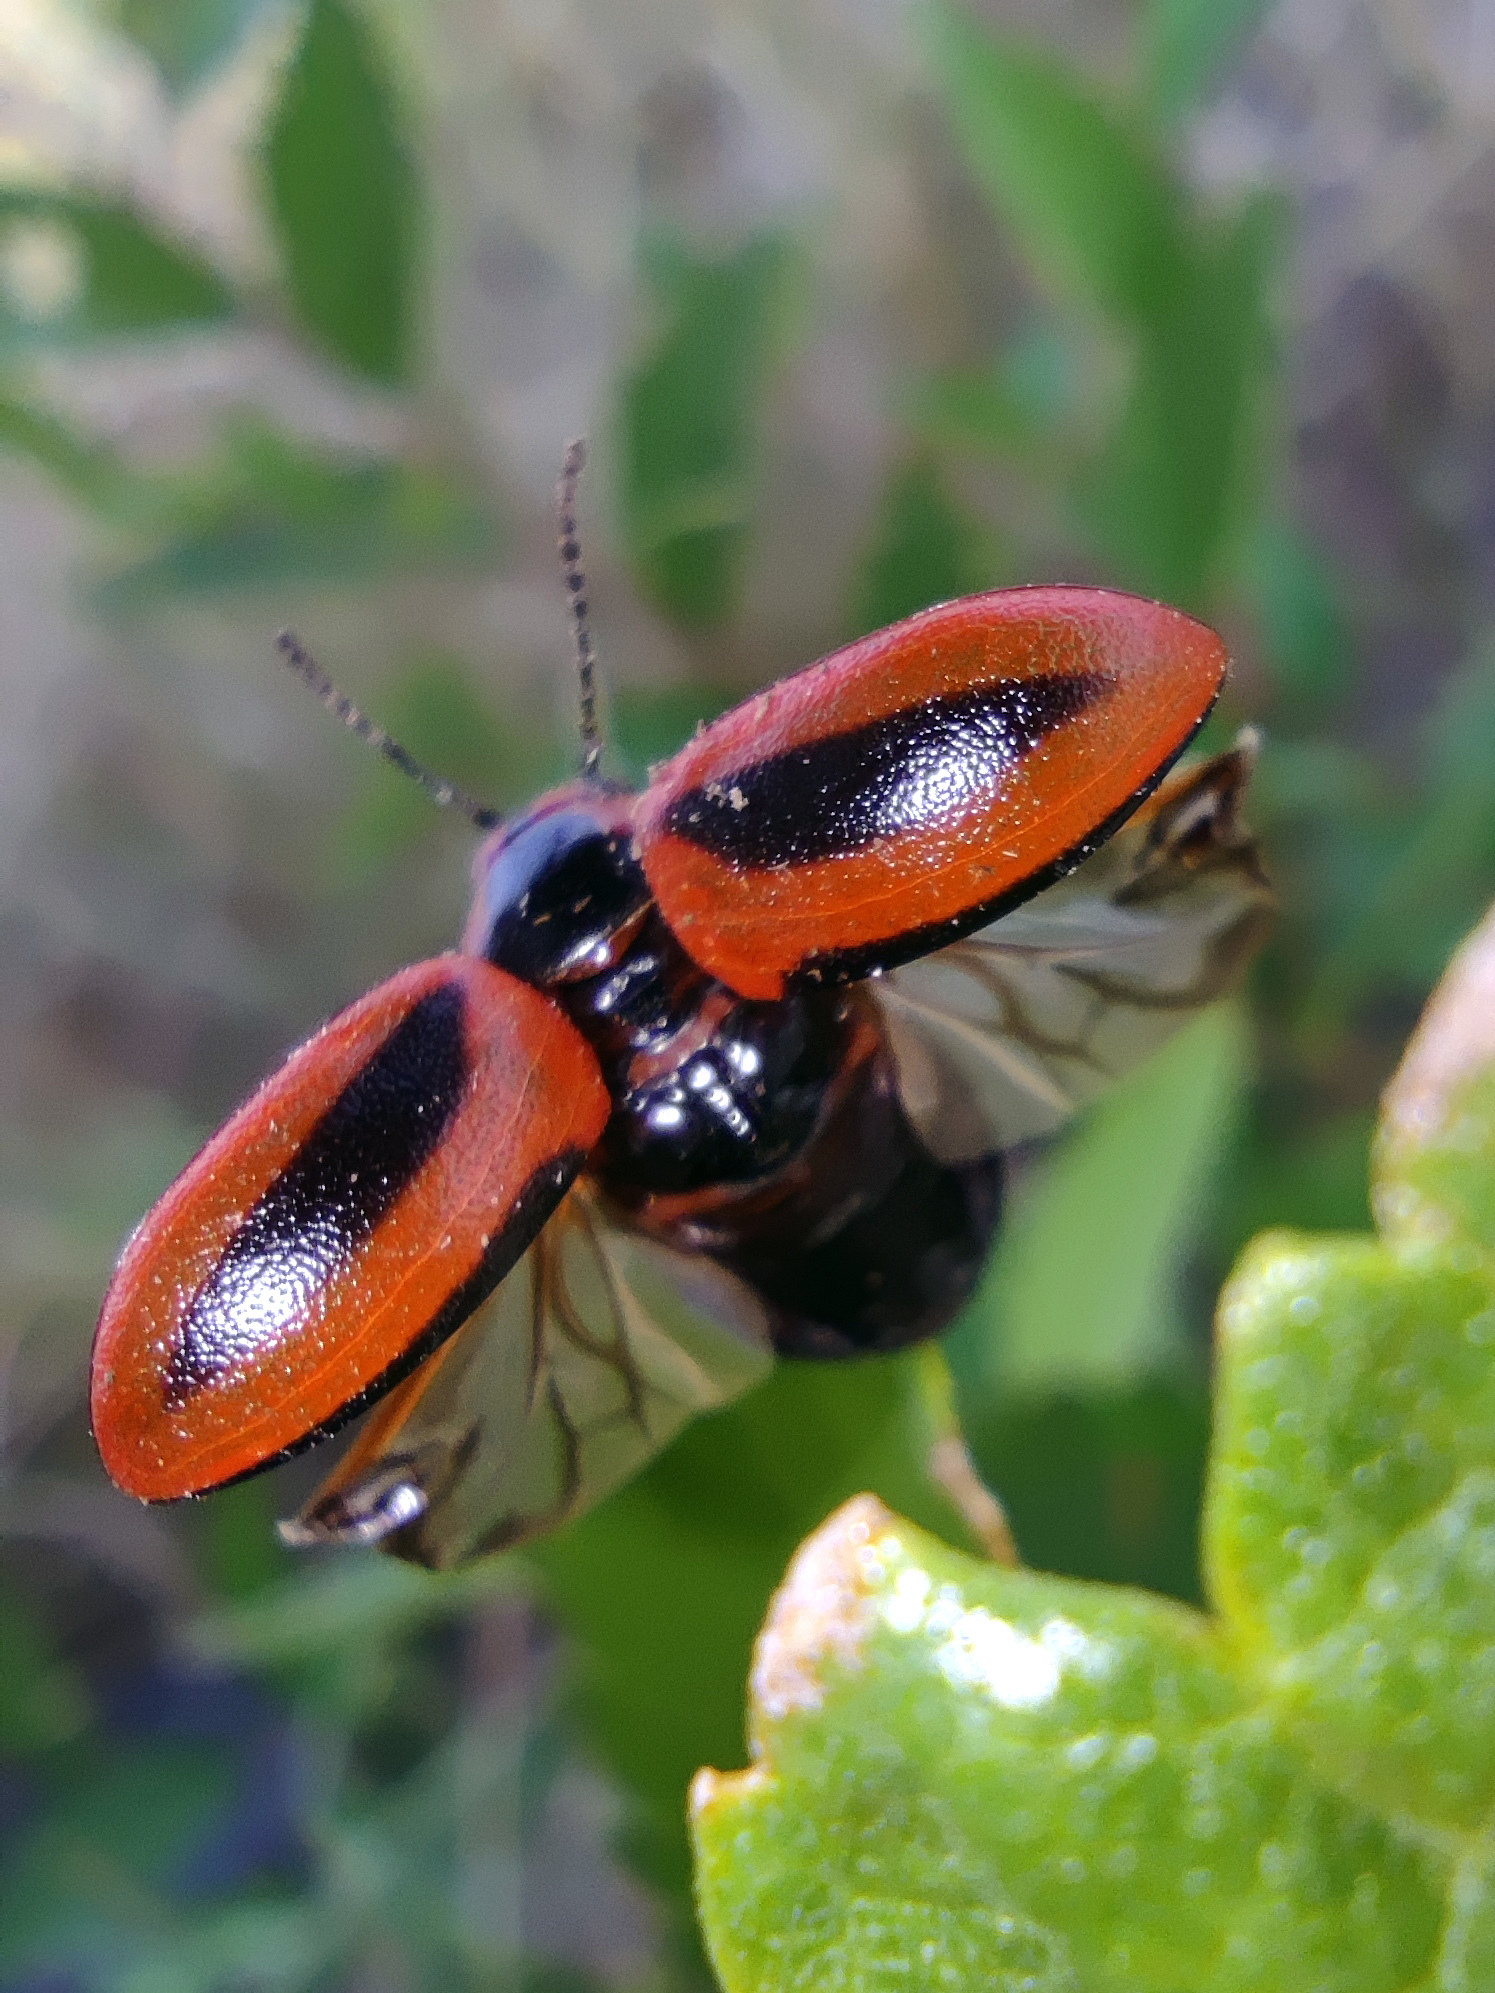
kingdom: Animalia
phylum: Arthropoda
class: Insecta
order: Coleoptera
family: Chrysomelidae
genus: Entomoscelis
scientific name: Entomoscelis adonidis
